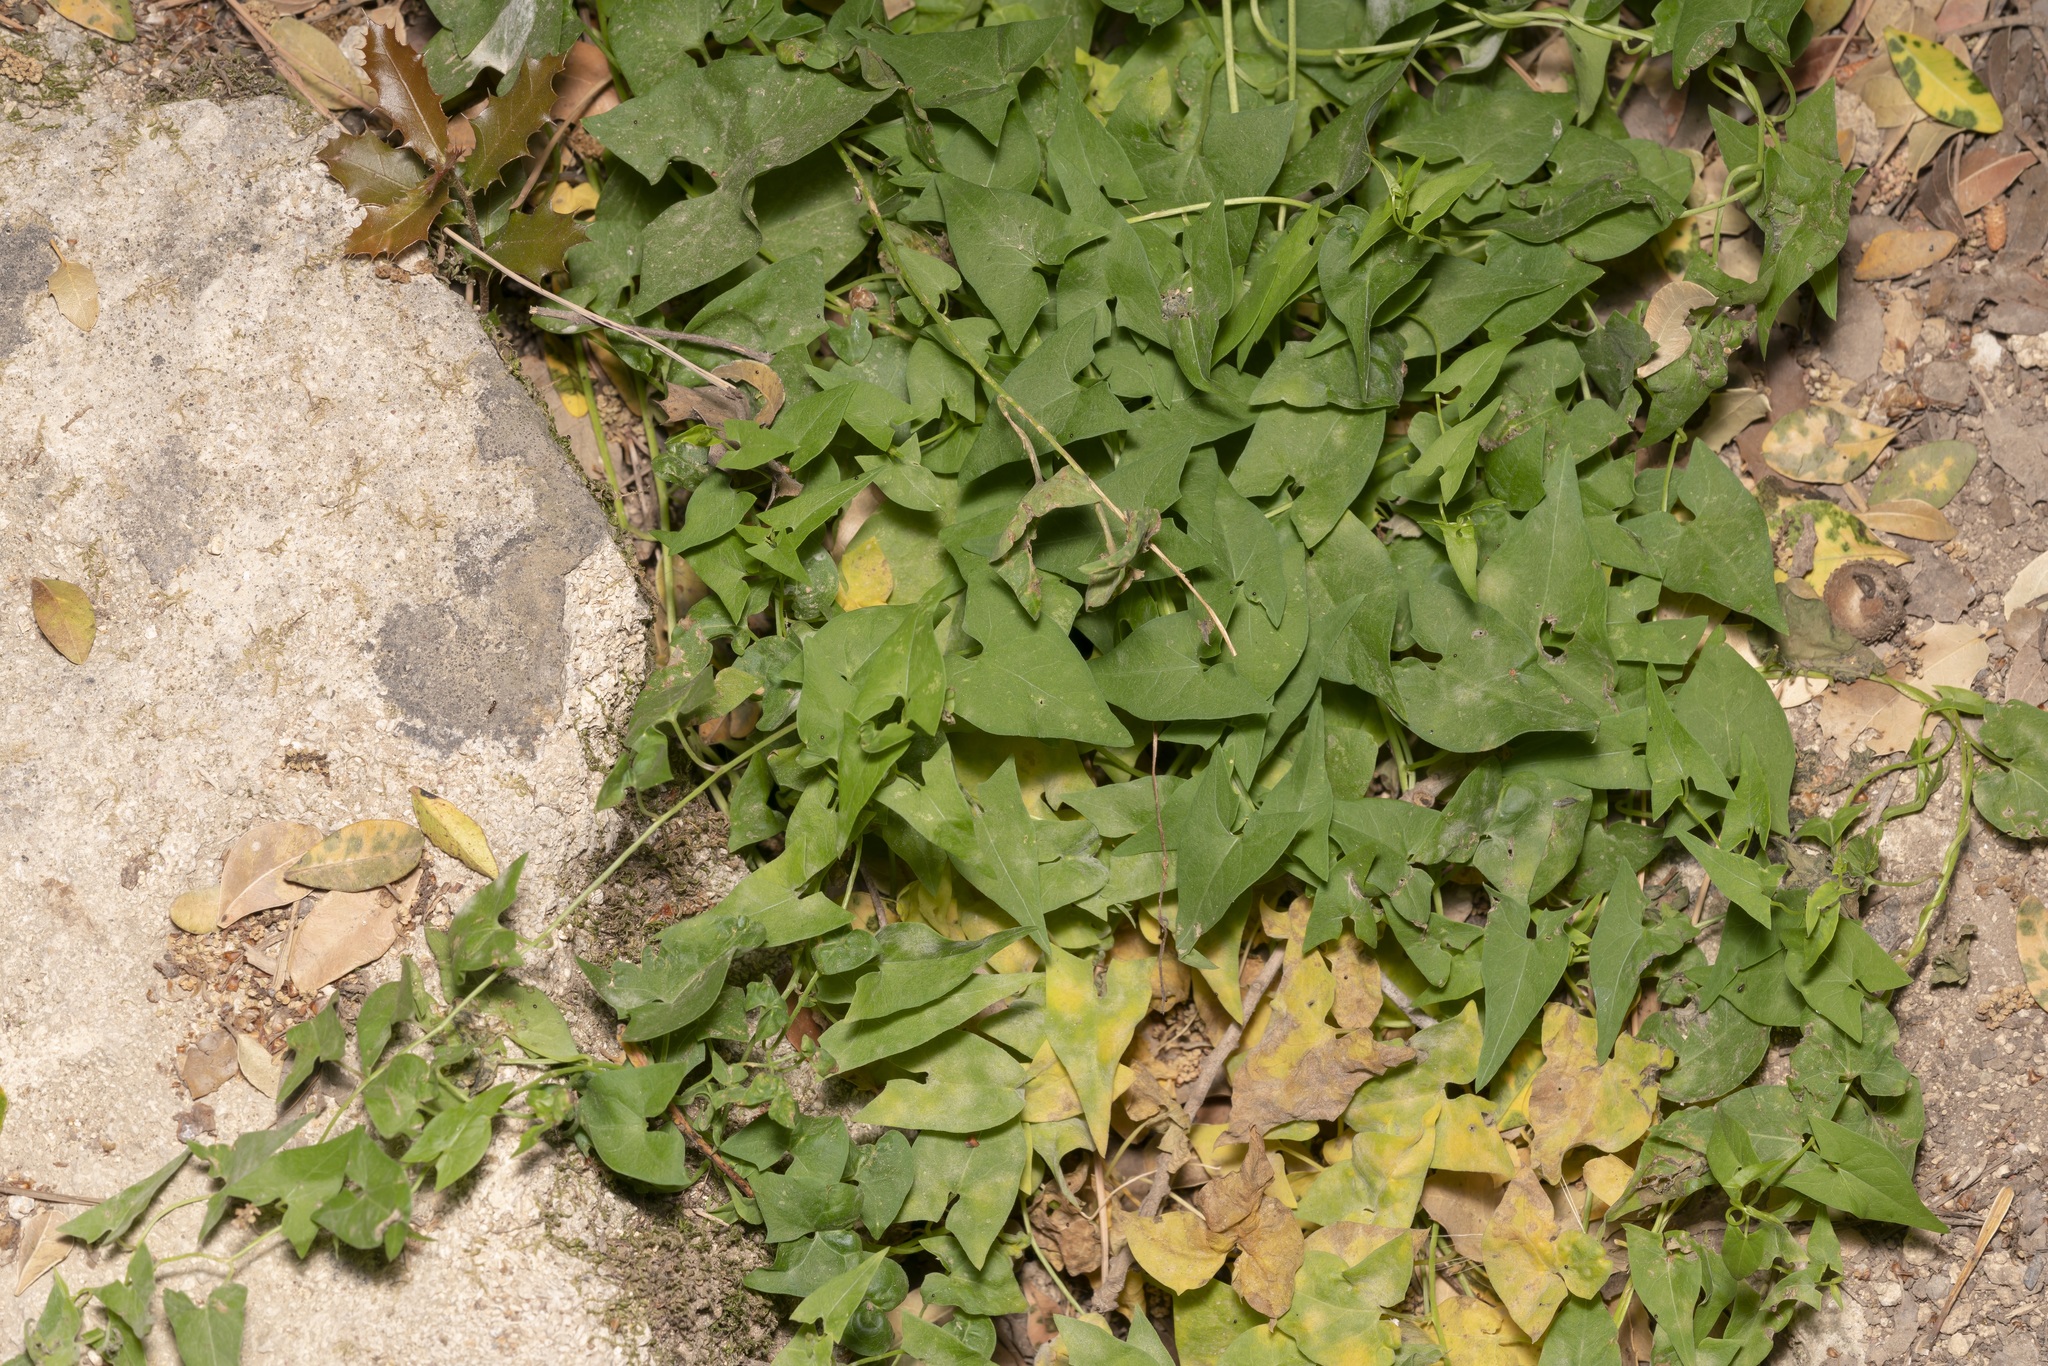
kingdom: Plantae
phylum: Tracheophyta
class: Magnoliopsida
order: Solanales
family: Convolvulaceae
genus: Convolvulus
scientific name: Convolvulus scammonia
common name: Scammony
